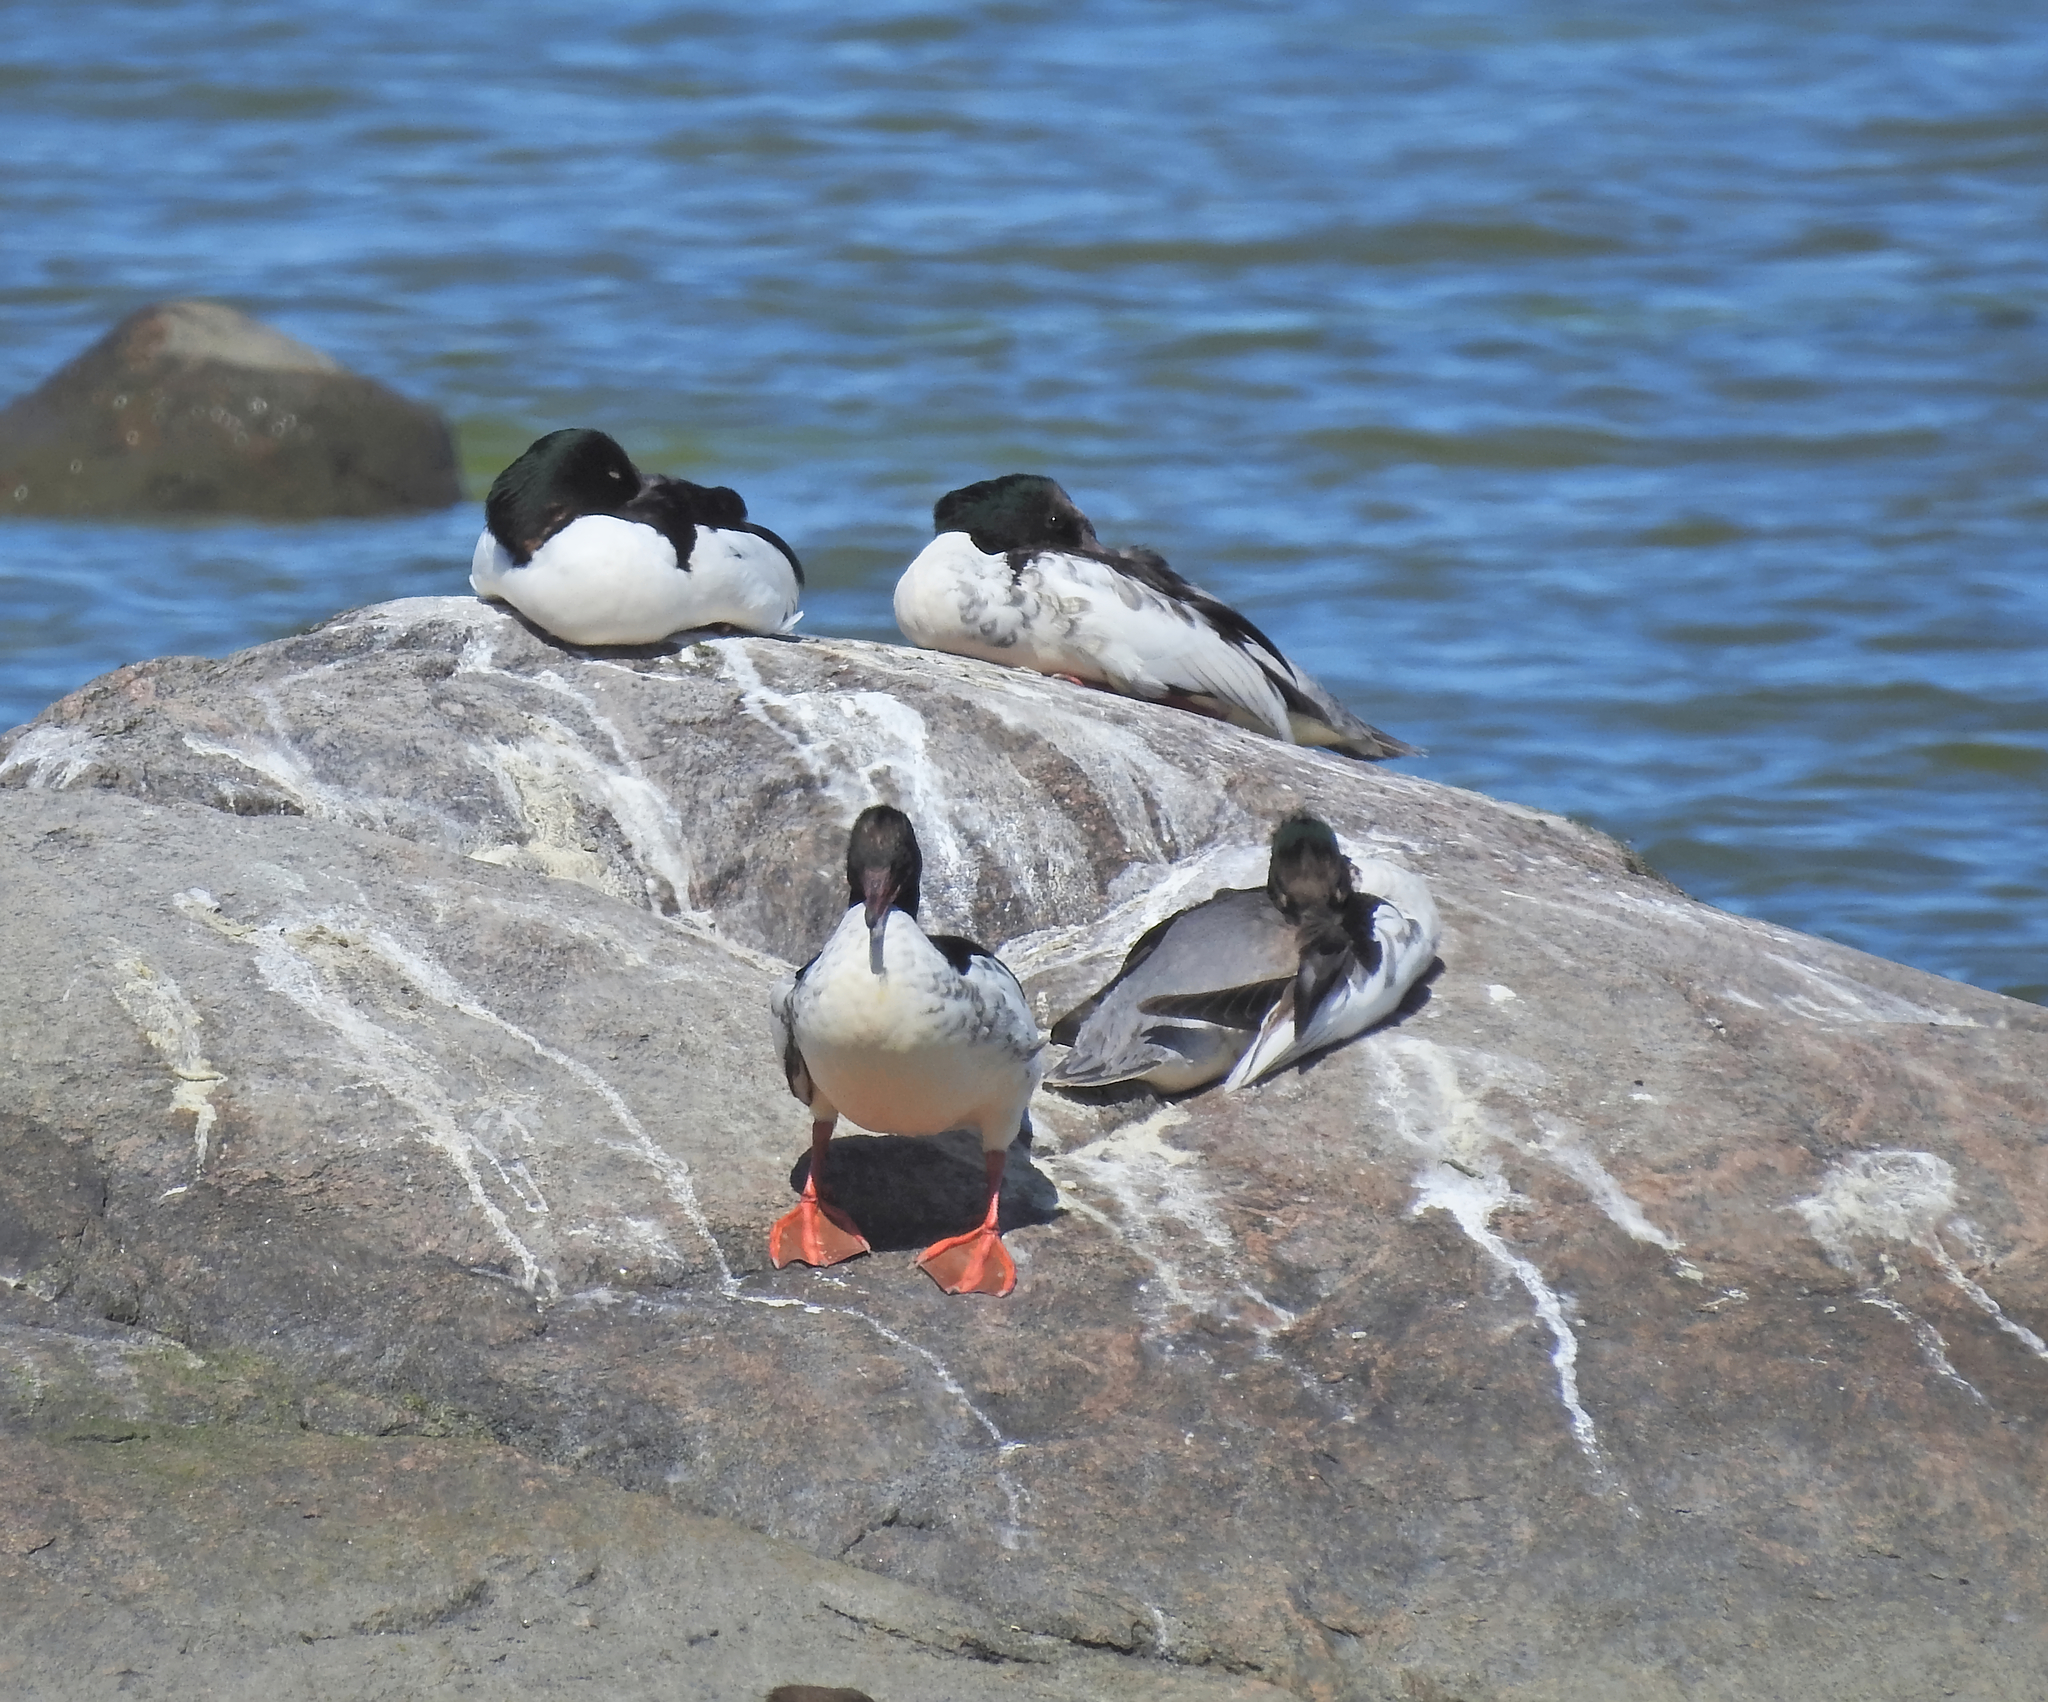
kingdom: Animalia
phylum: Chordata
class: Aves
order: Anseriformes
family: Anatidae
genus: Mergus
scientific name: Mergus merganser
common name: Common merganser
